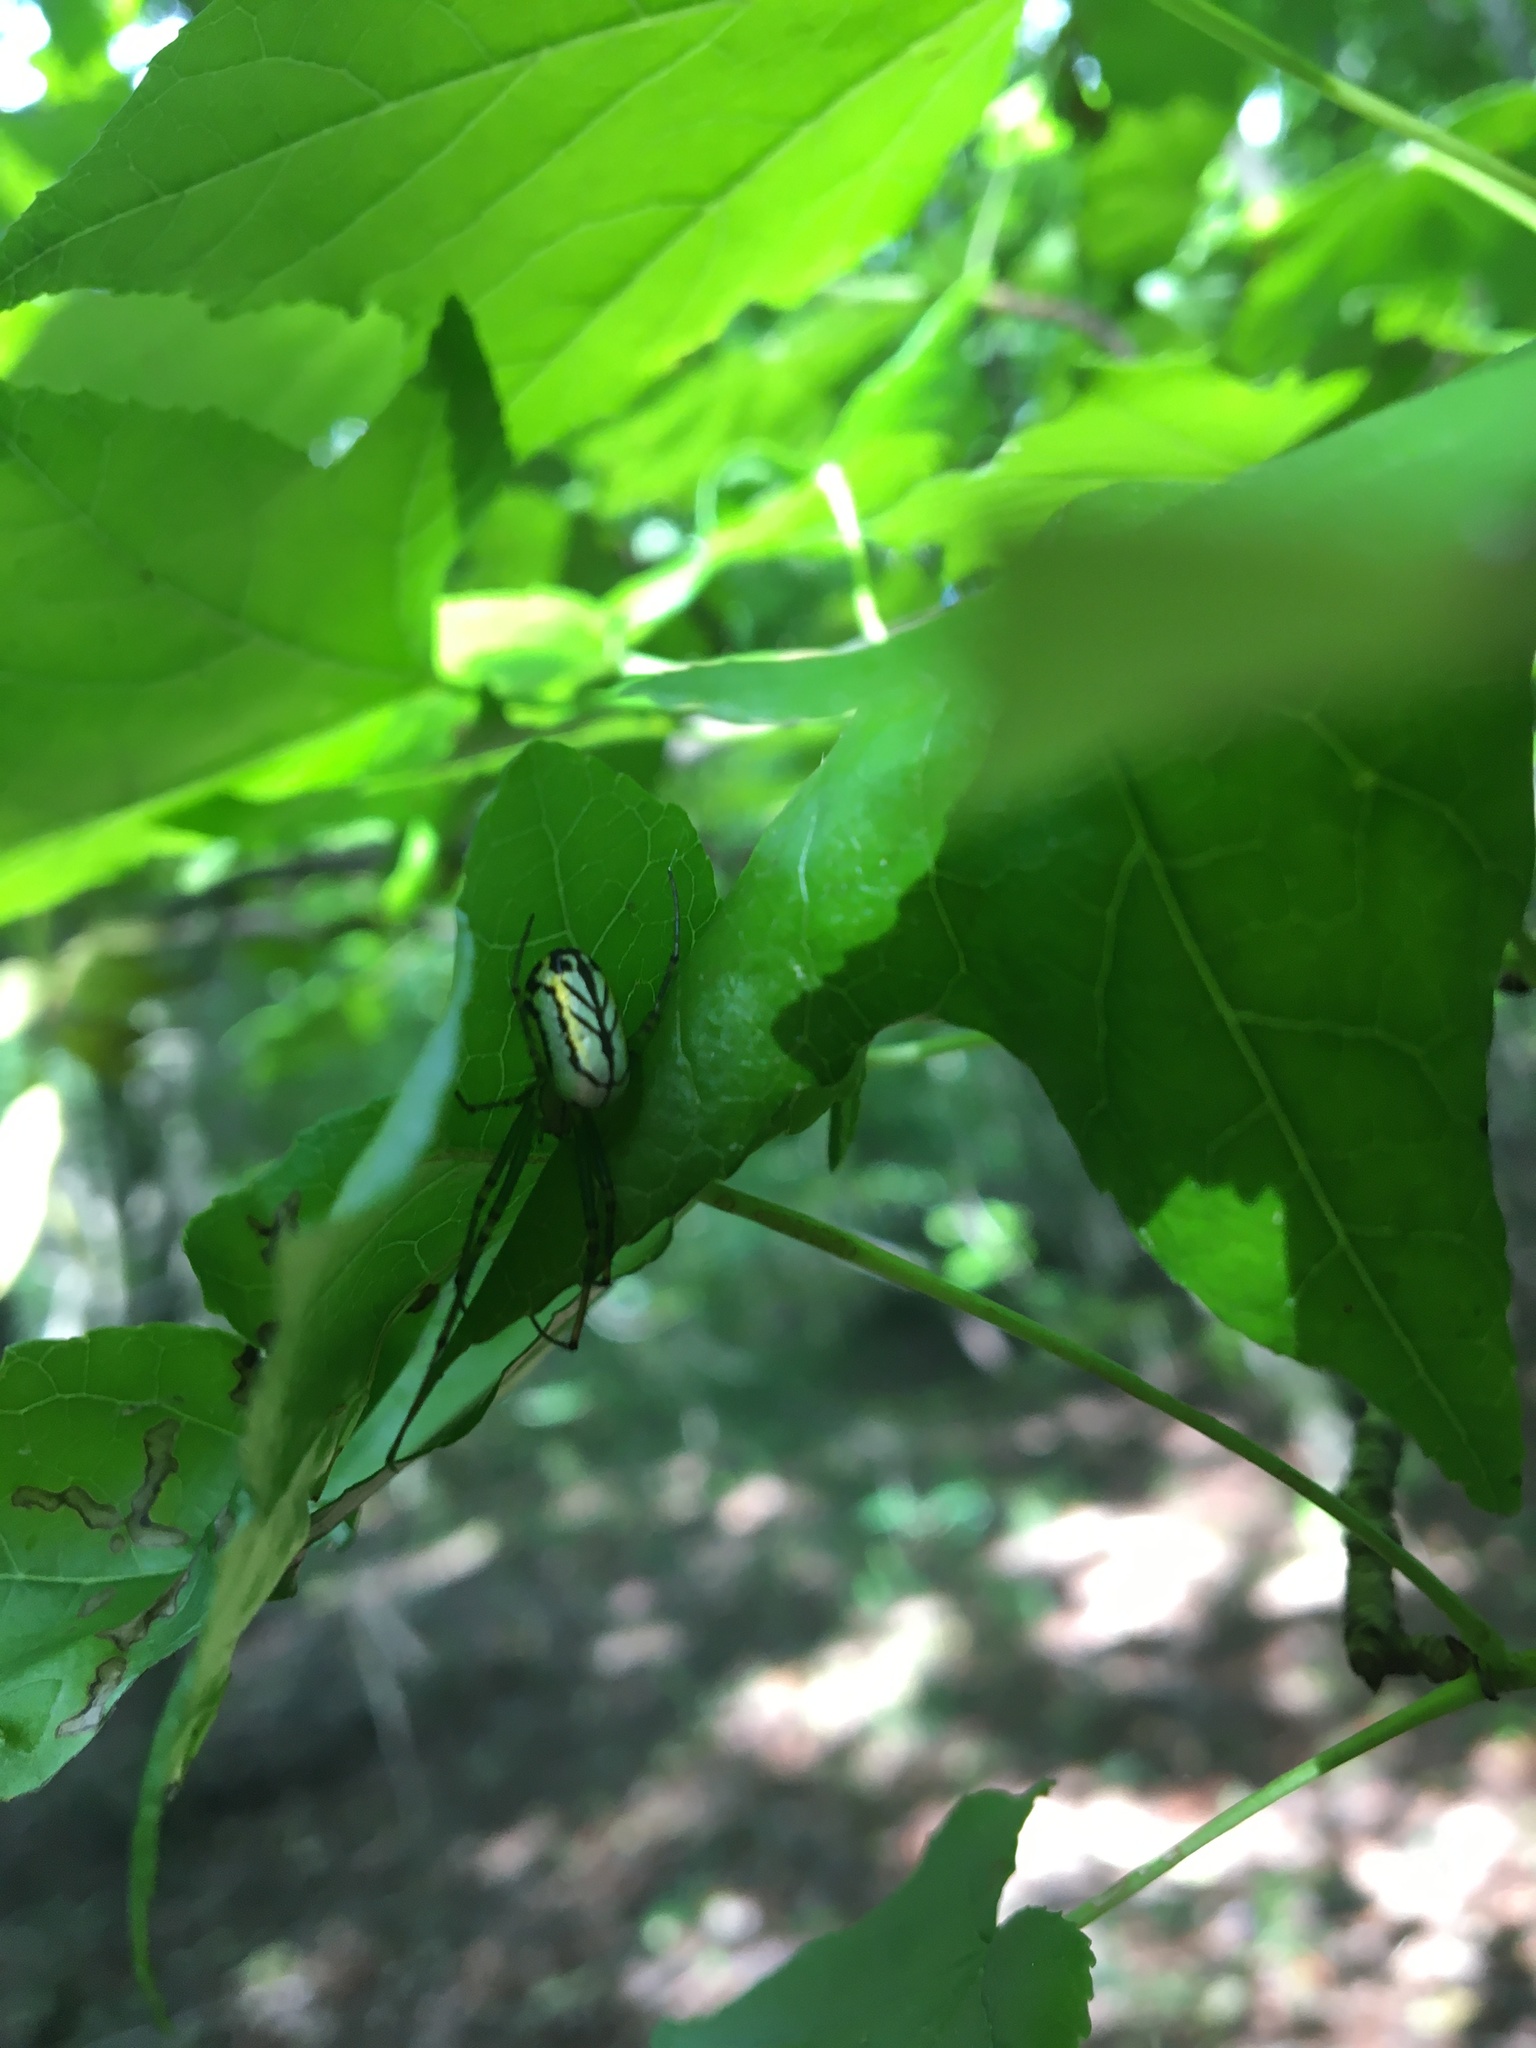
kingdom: Animalia
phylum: Arthropoda
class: Arachnida
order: Araneae
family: Tetragnathidae
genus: Leucauge
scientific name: Leucauge venusta
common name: Longjawed orb weavers
